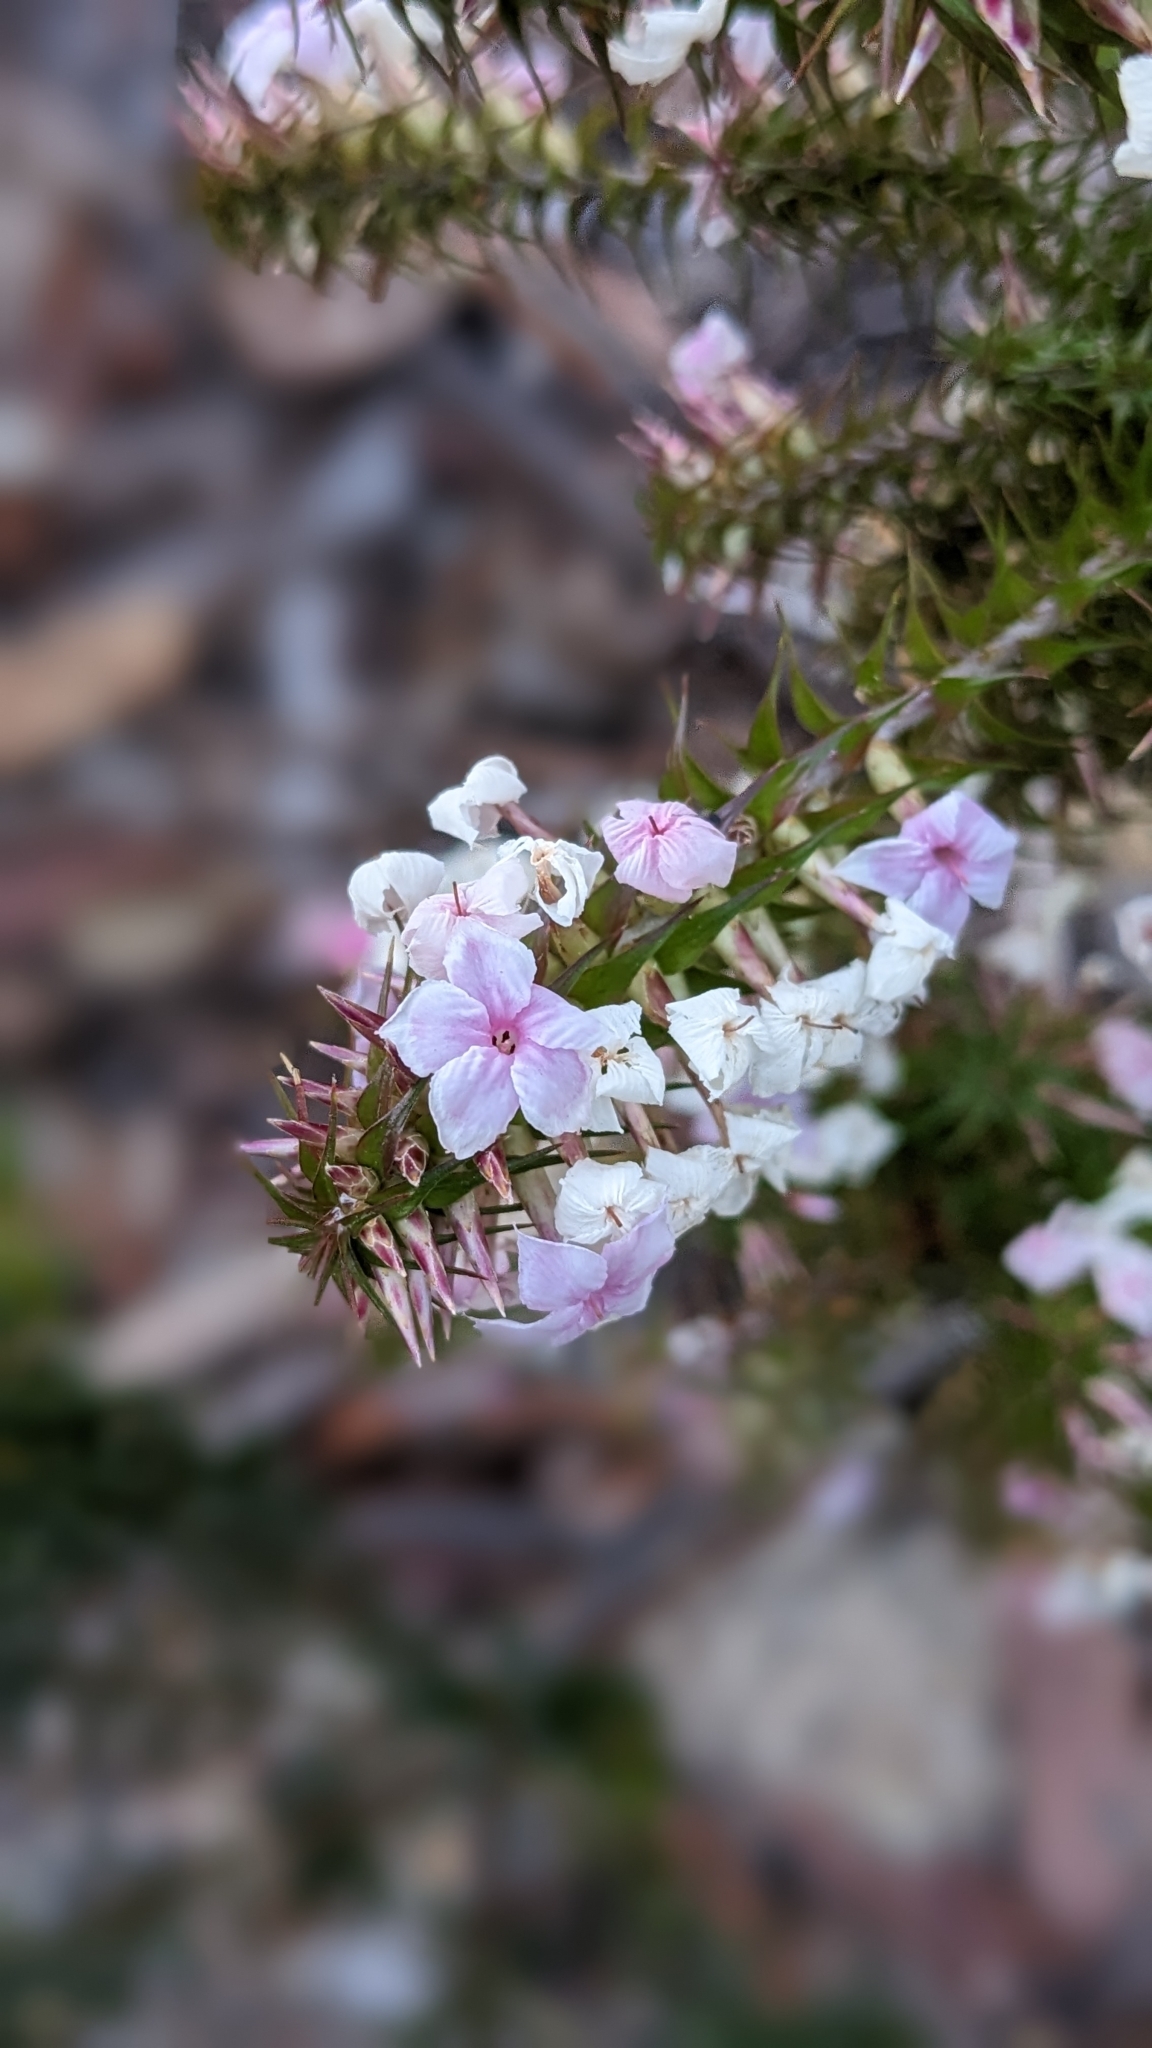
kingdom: Plantae
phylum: Tracheophyta
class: Magnoliopsida
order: Ericales
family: Ericaceae
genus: Woollsia
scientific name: Woollsia pungens
